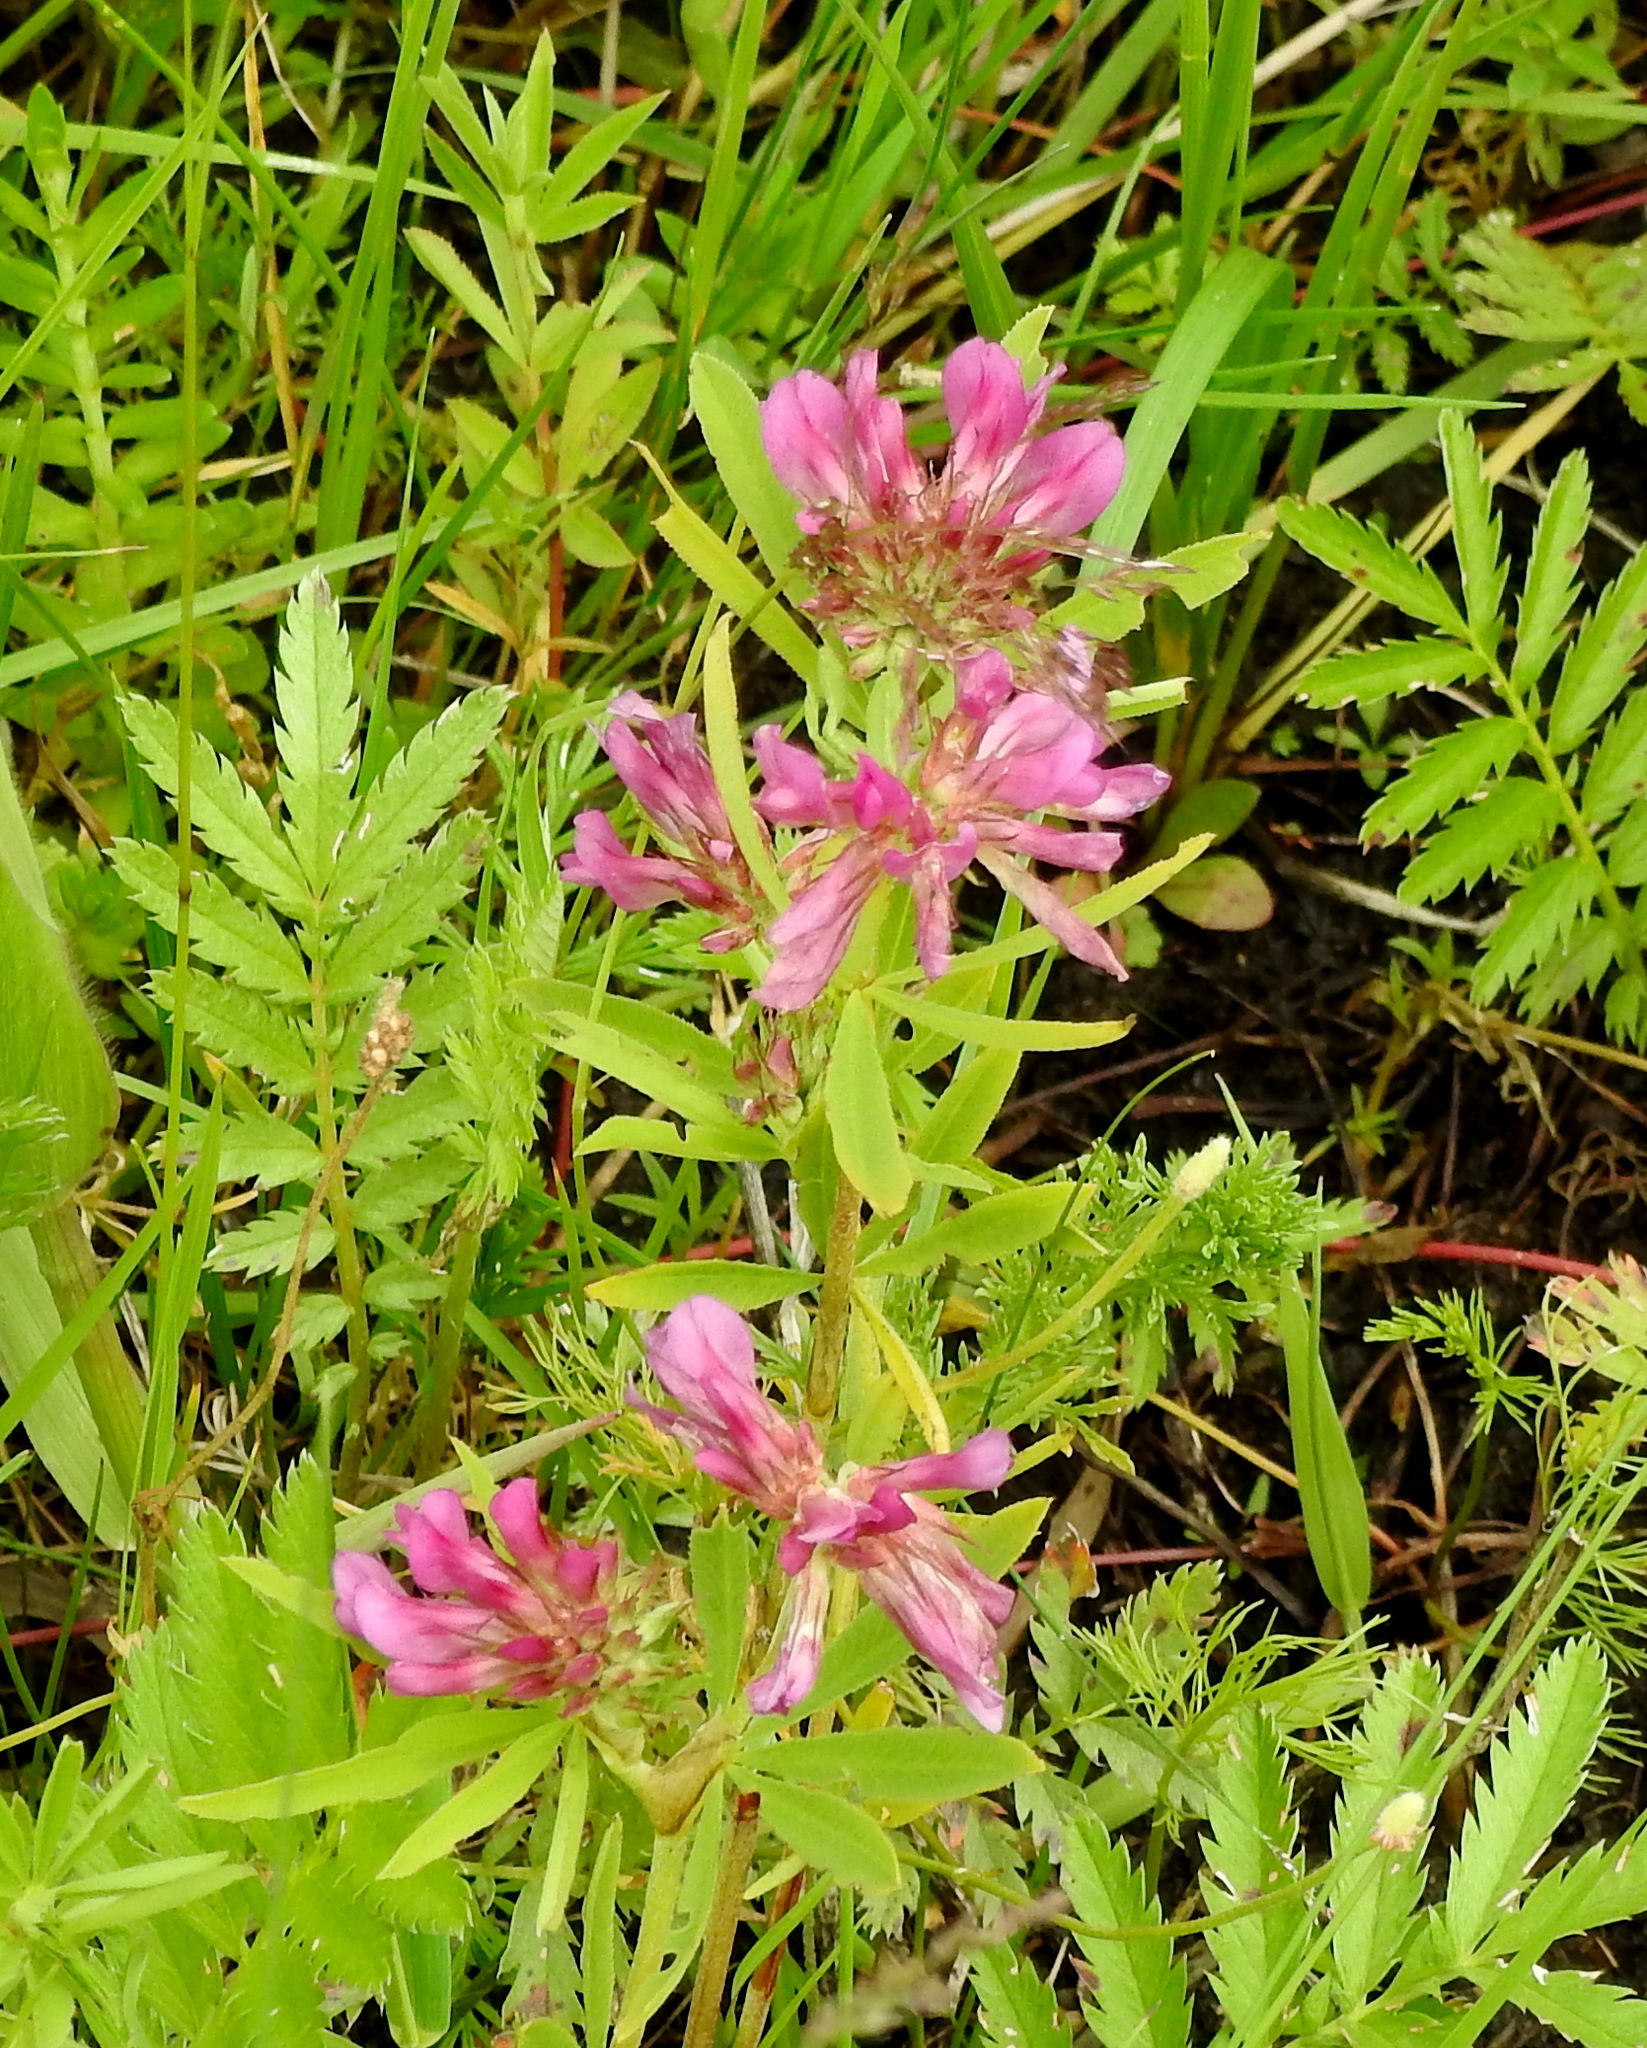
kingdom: Plantae
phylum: Tracheophyta
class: Magnoliopsida
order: Fabales
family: Fabaceae
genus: Trifolium
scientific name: Trifolium lupinaster
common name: Lupine clover
